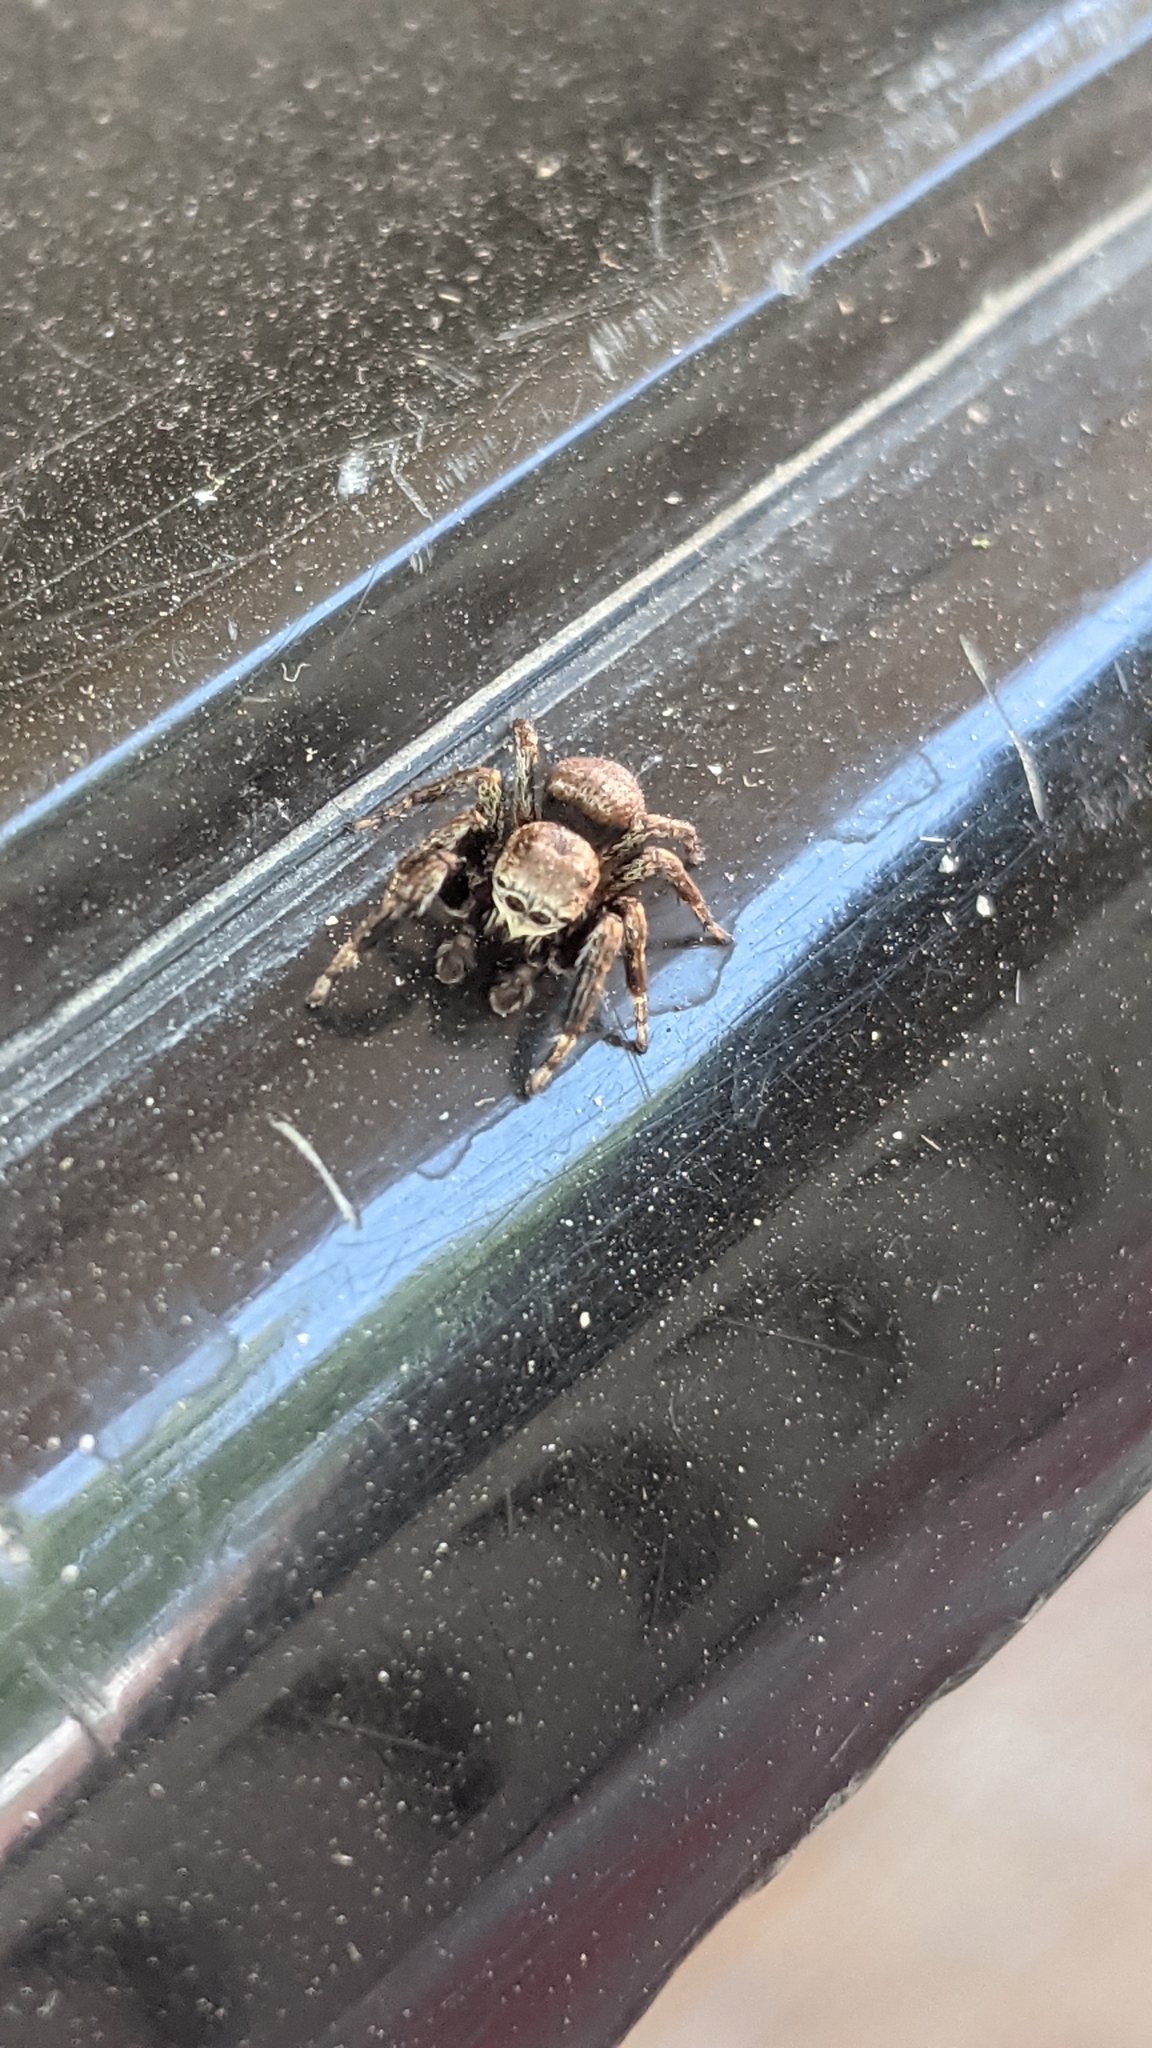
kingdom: Animalia
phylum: Arthropoda
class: Arachnida
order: Araneae
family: Salticidae
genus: Evarcha
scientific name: Evarcha arcuata
